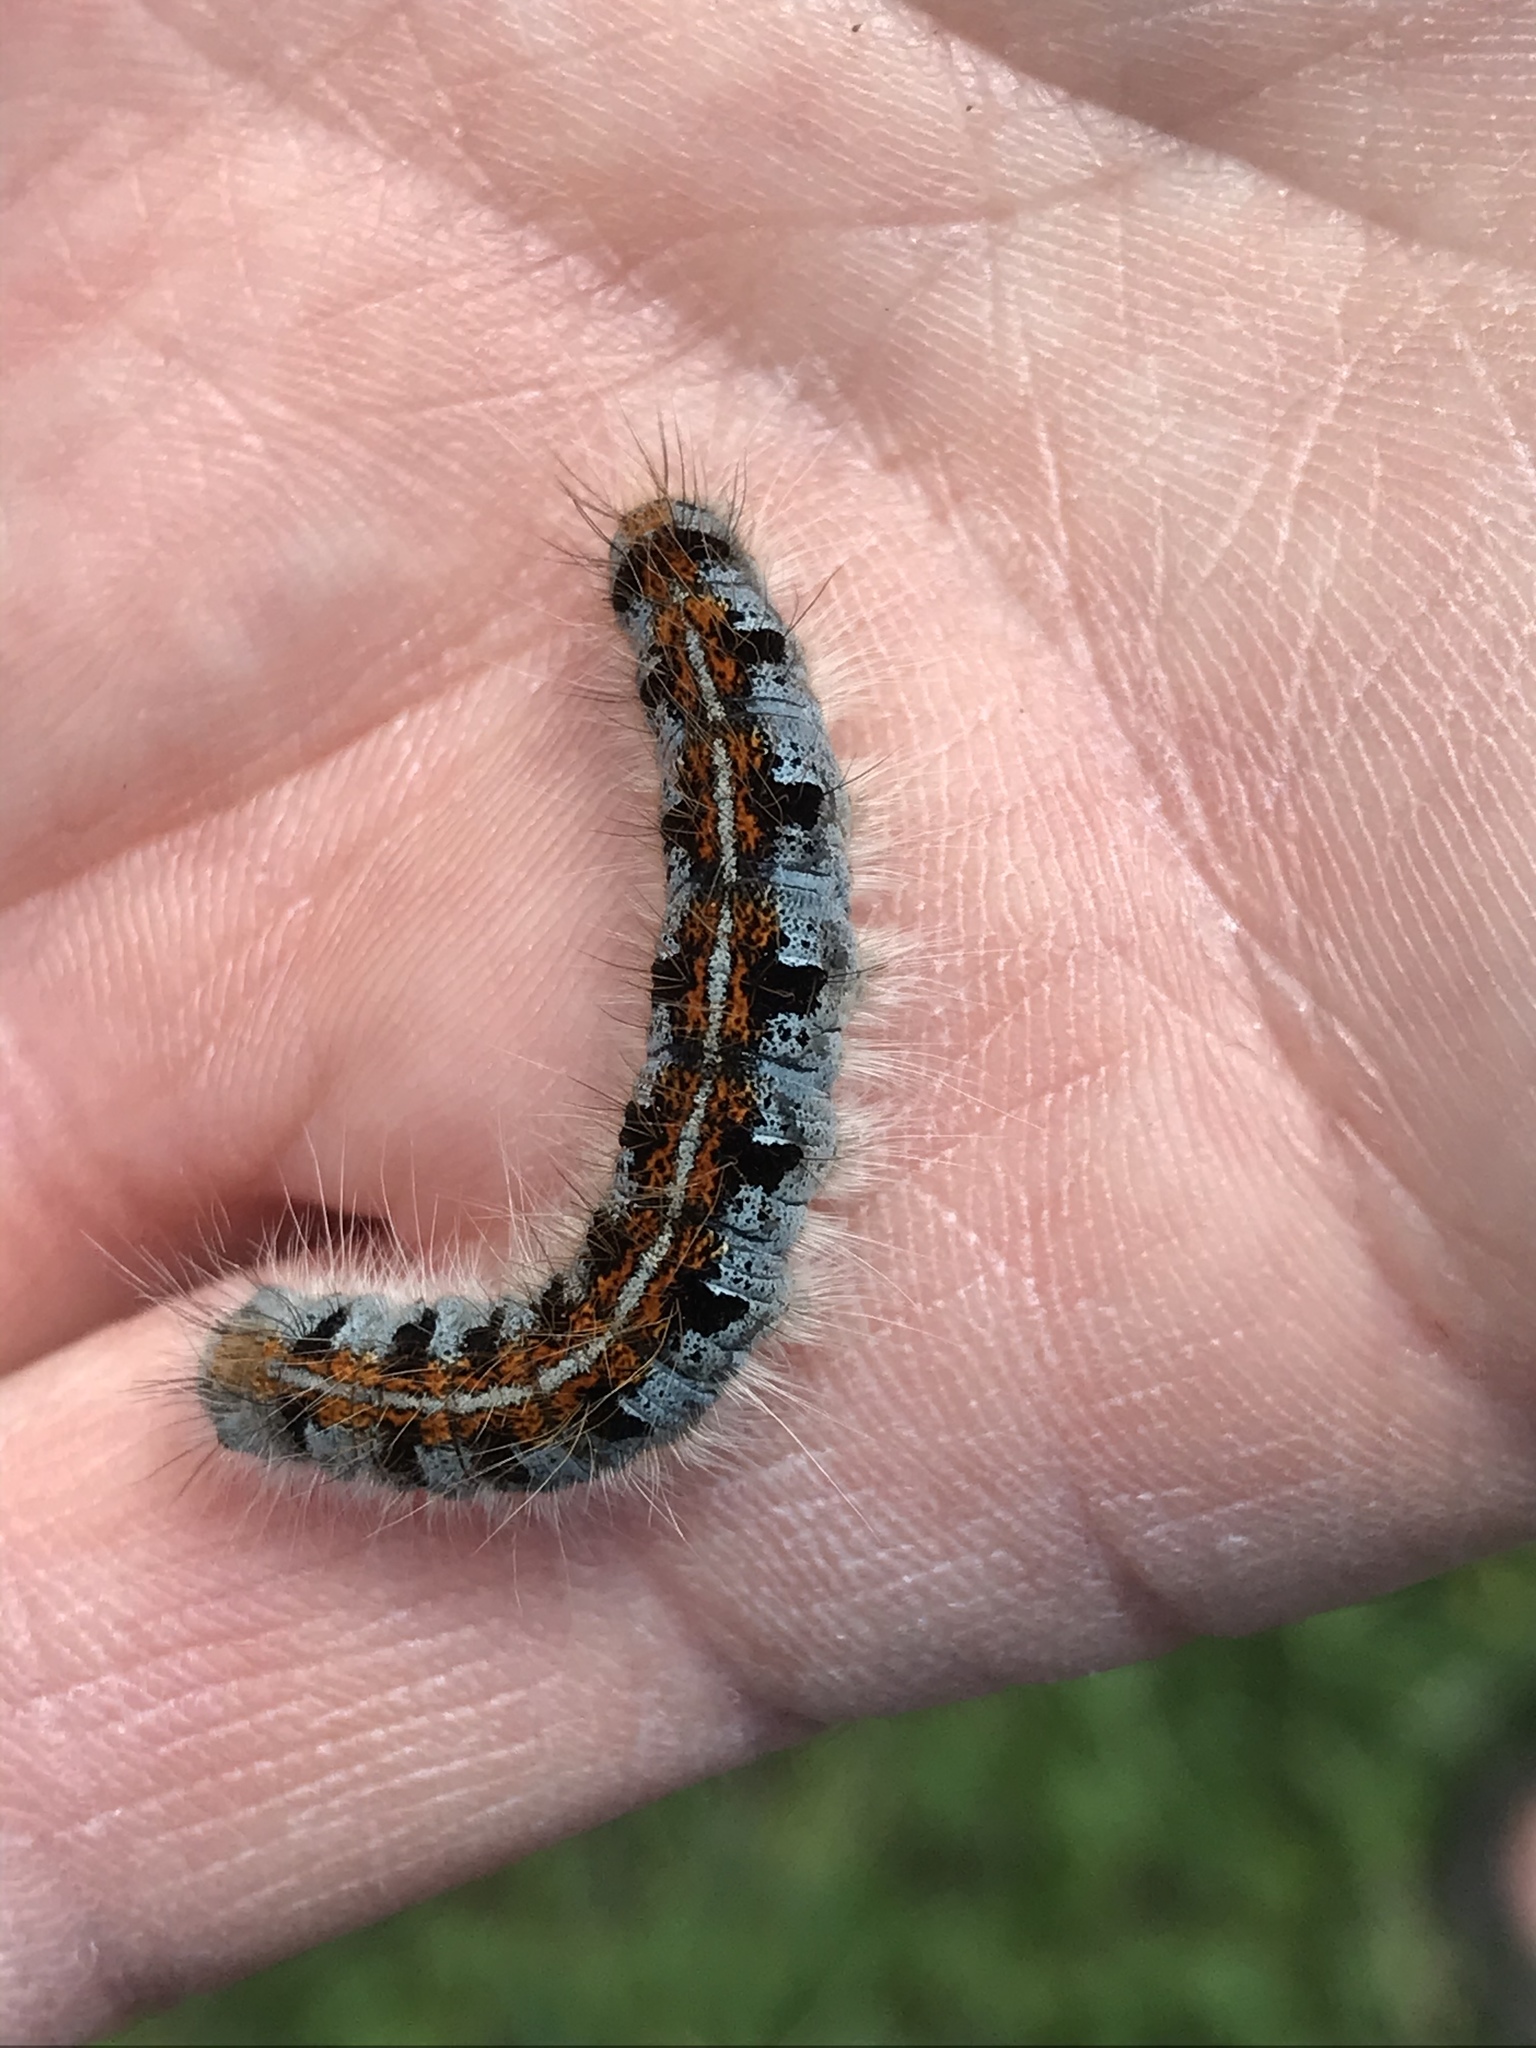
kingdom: Animalia
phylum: Arthropoda
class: Insecta
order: Lepidoptera
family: Lasiocampidae
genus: Malacosoma
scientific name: Malacosoma californica
